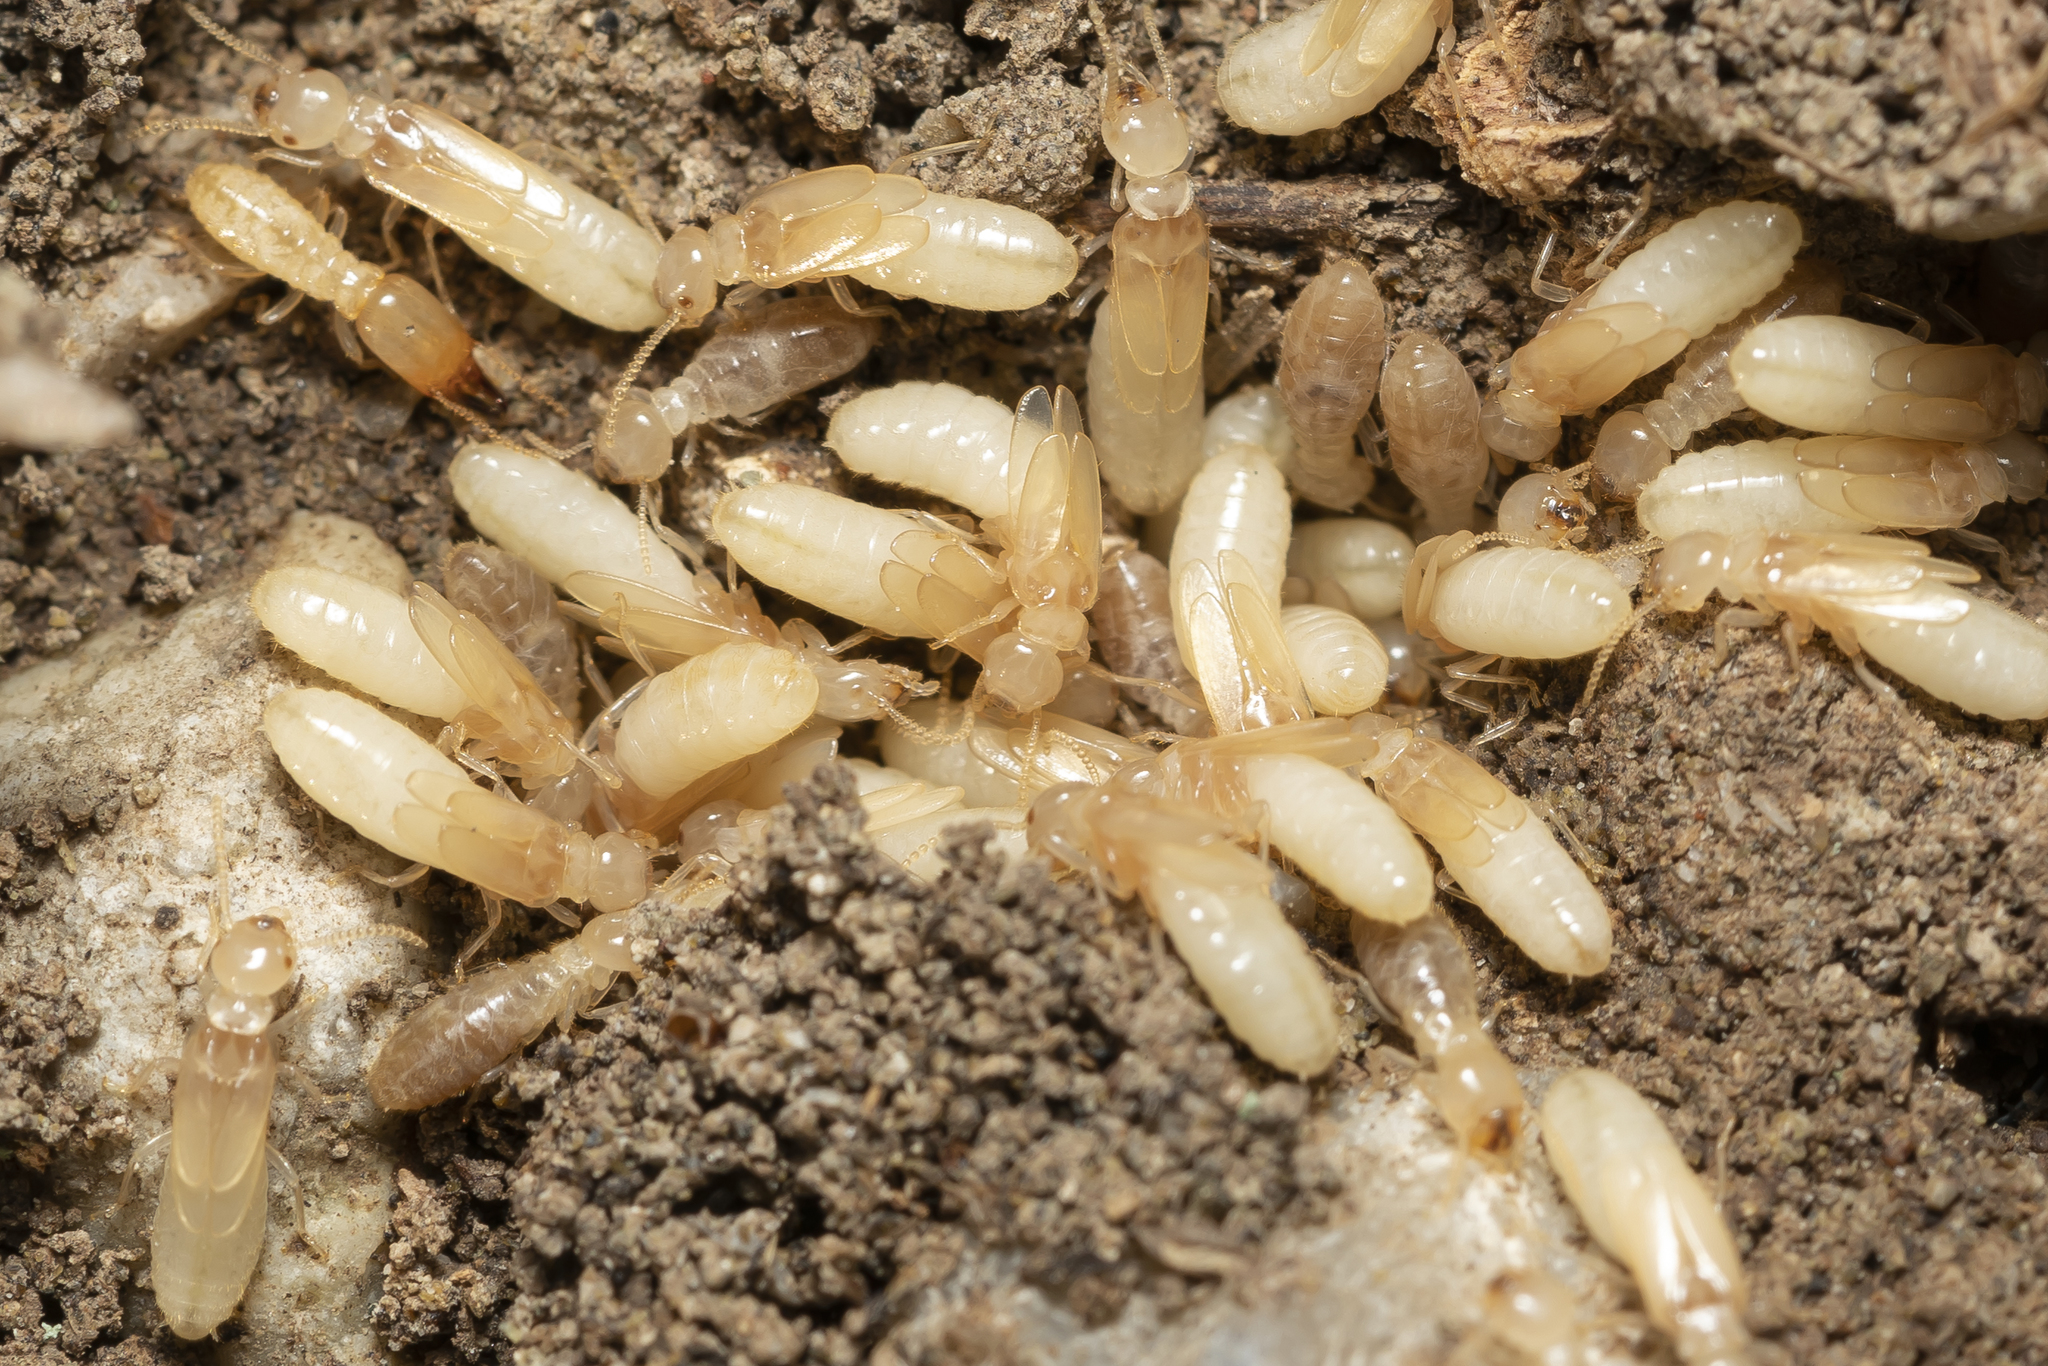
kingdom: Animalia
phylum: Arthropoda
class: Insecta
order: Blattodea
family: Rhinotermitidae
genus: Reticulitermes
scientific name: Reticulitermes
